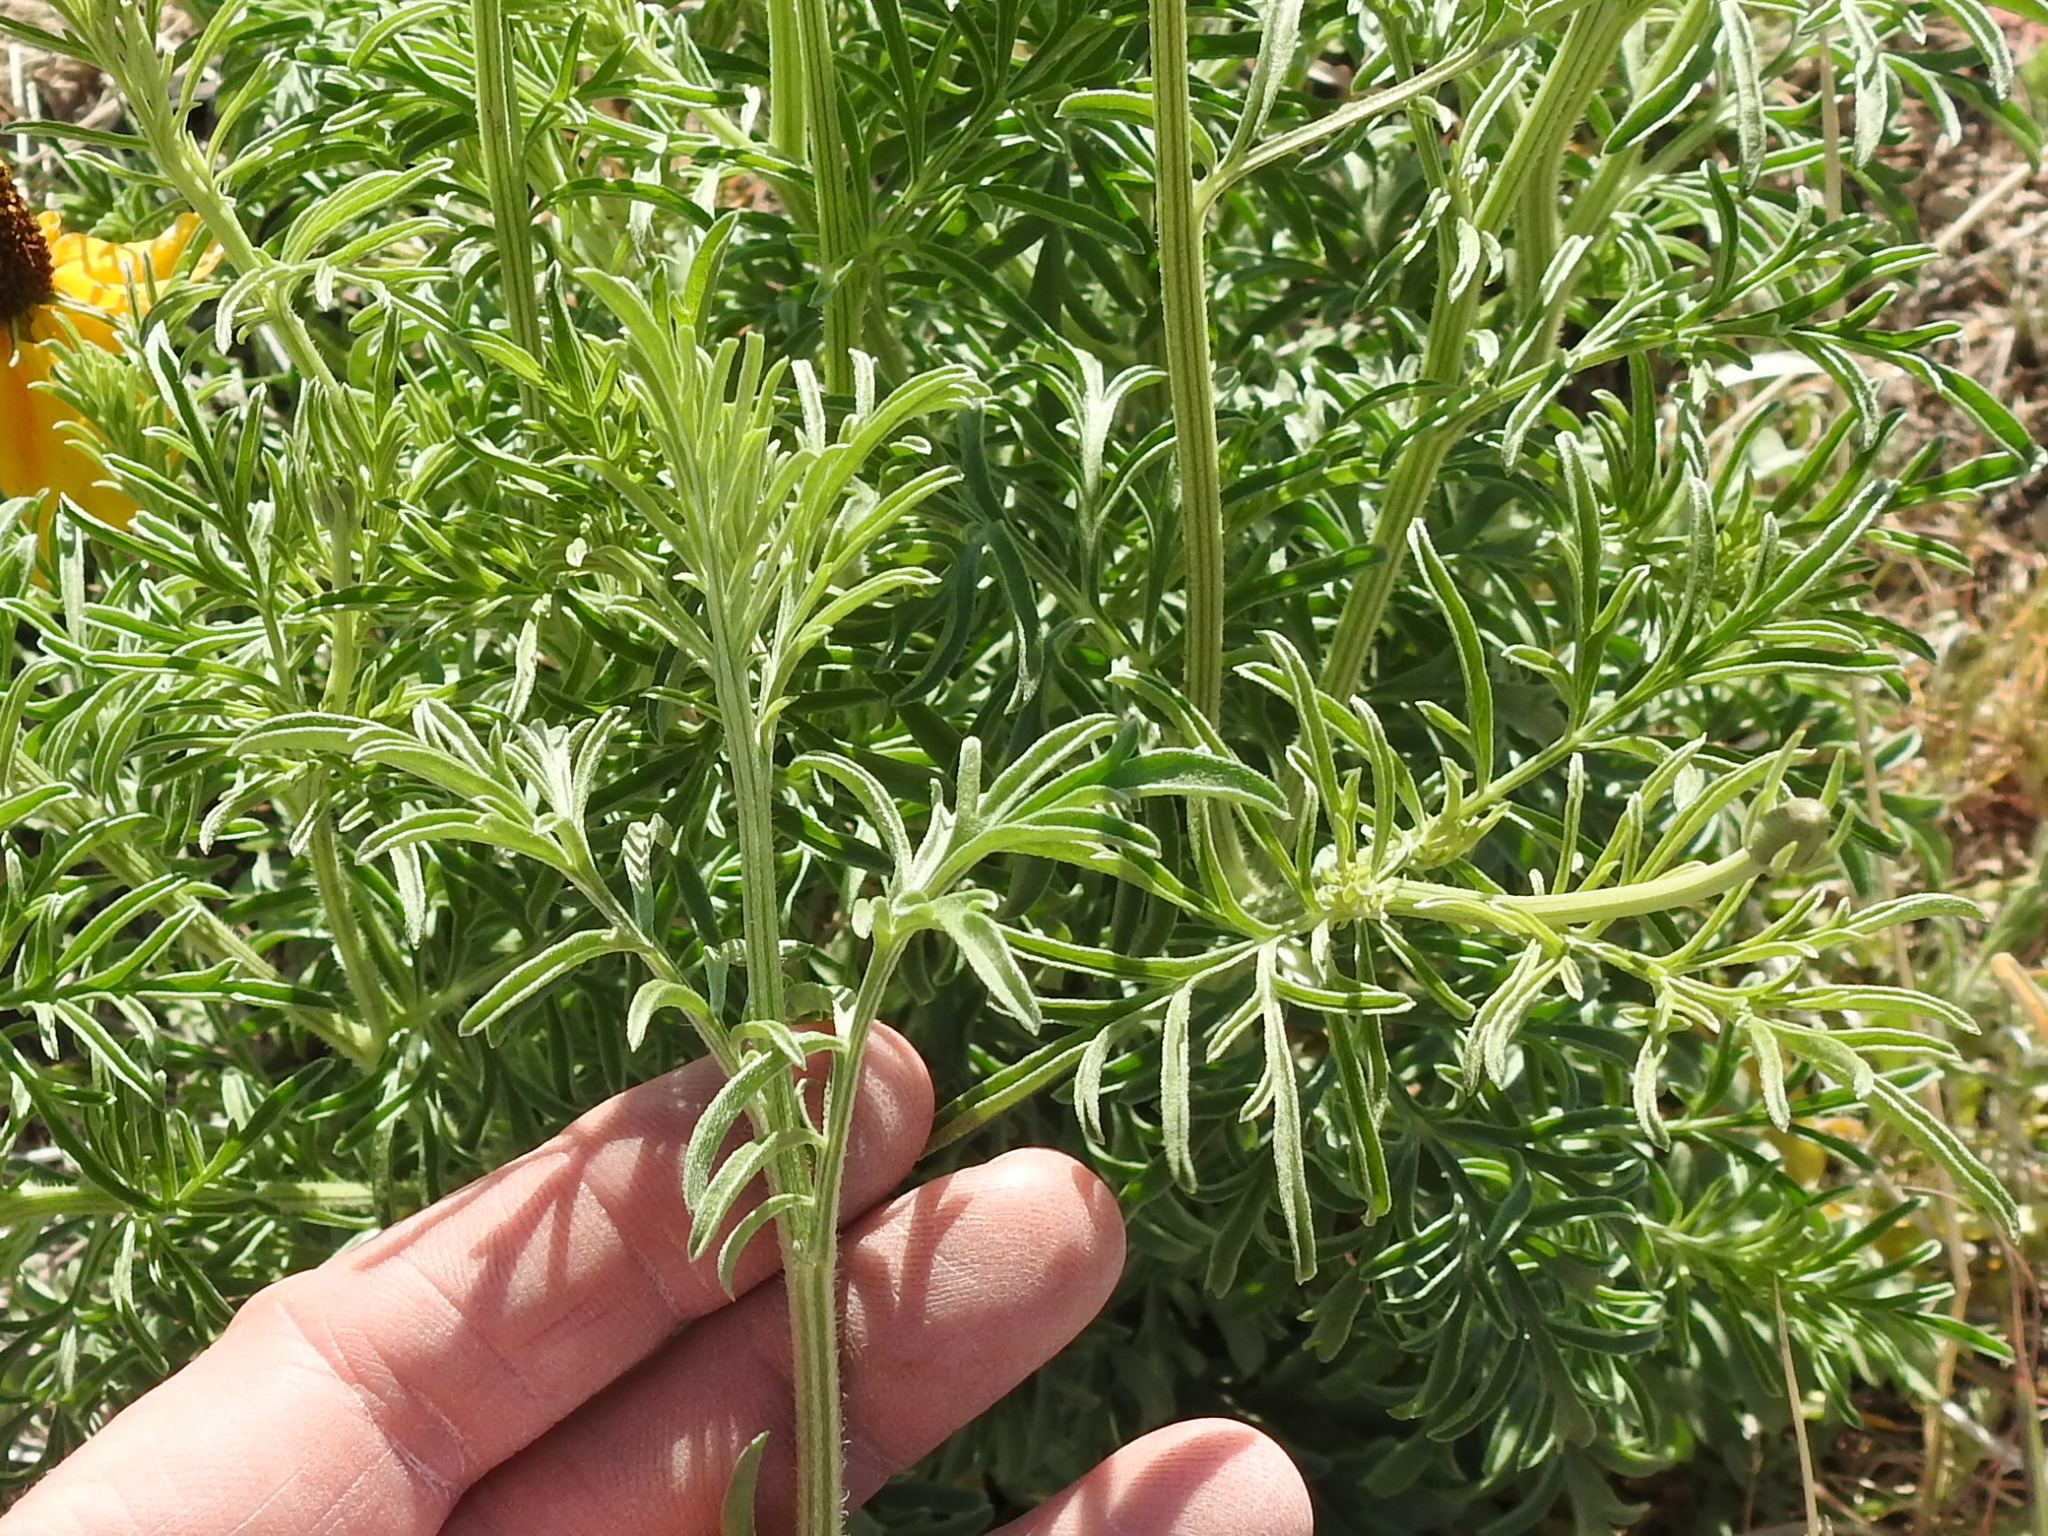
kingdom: Plantae
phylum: Tracheophyta
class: Magnoliopsida
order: Asterales
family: Asteraceae
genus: Ratibida
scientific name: Ratibida columnifera
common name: Prairie coneflower
